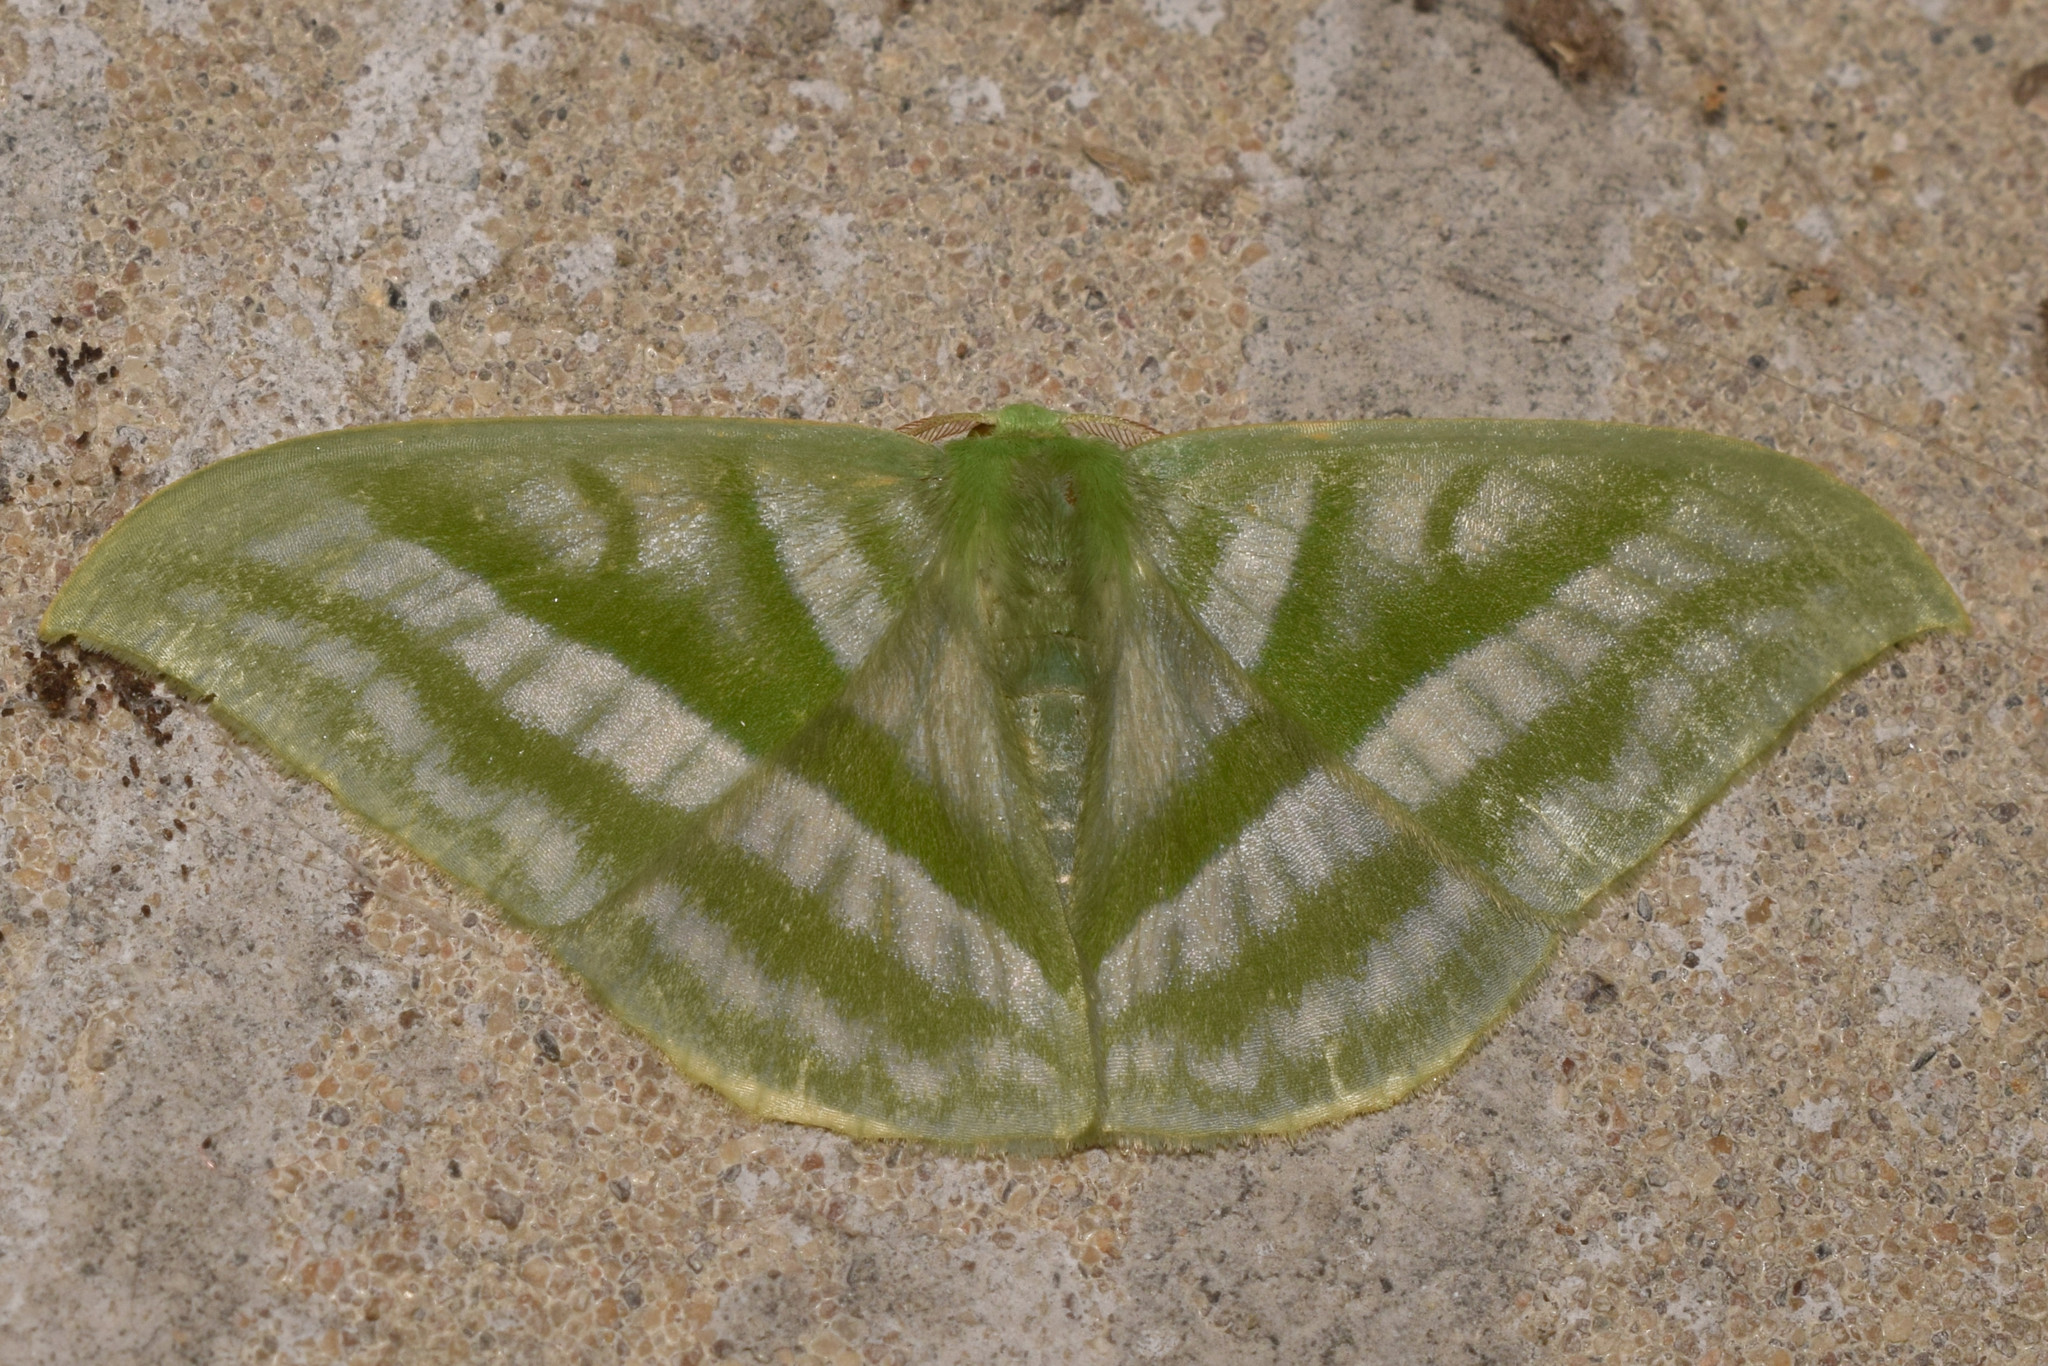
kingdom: Animalia
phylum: Arthropoda
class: Insecta
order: Lepidoptera
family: Geometridae
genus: Mixochlora
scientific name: Mixochlora vittata
